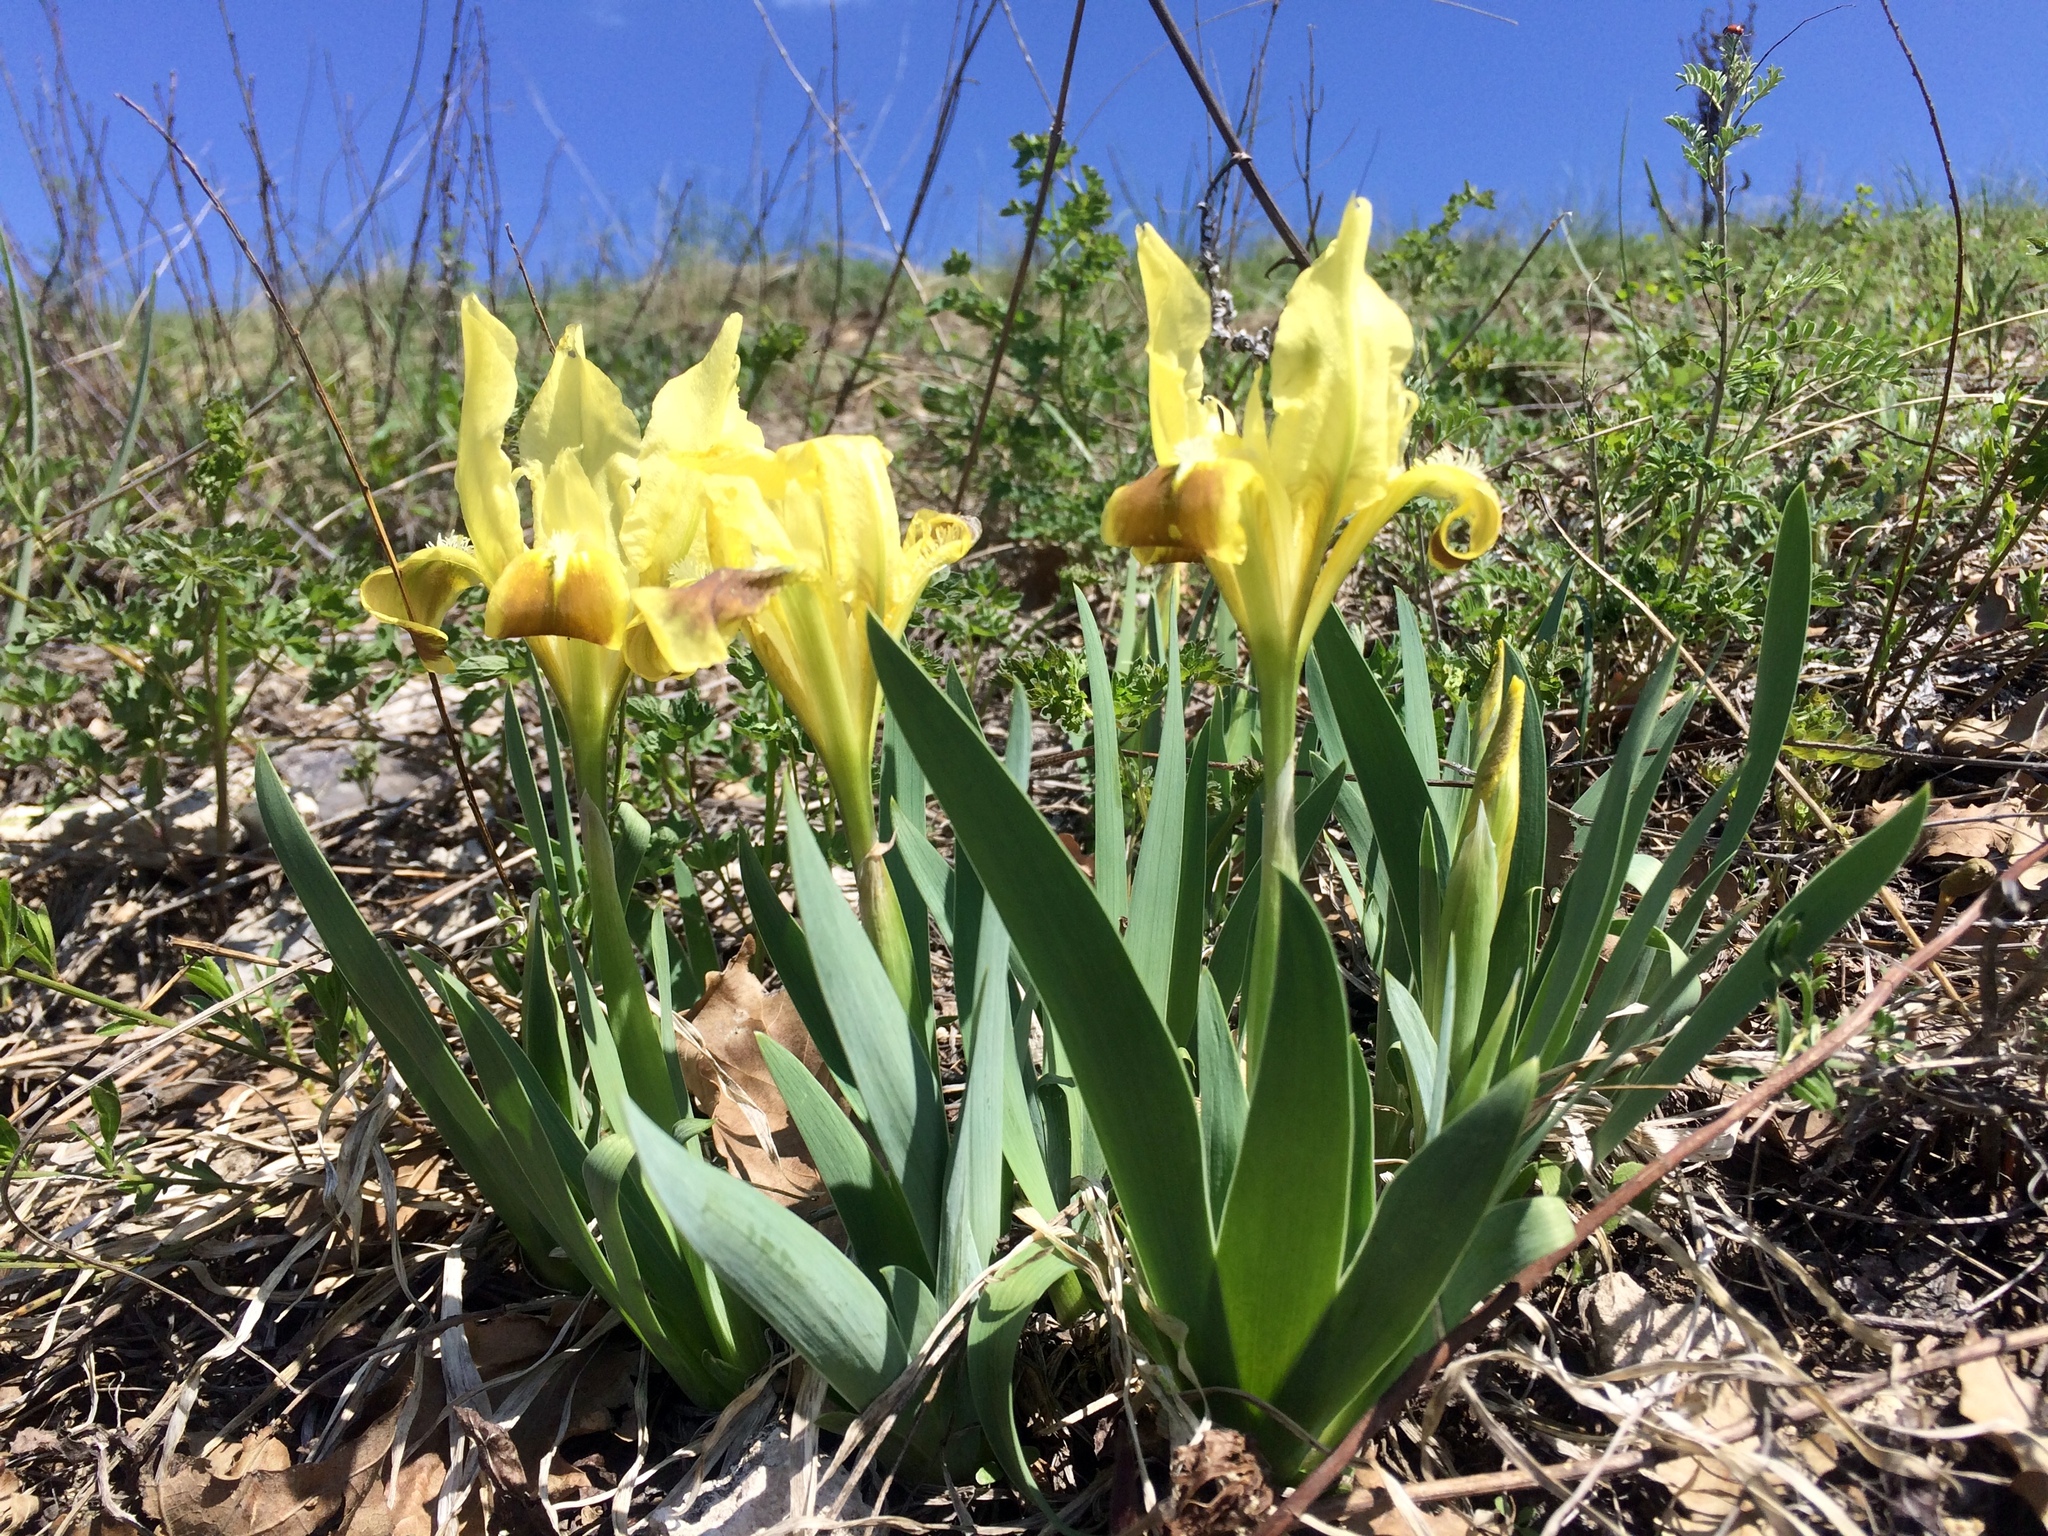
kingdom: Plantae
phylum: Tracheophyta
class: Liliopsida
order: Asparagales
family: Iridaceae
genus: Iris
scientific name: Iris pumila
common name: Dwarf iris
